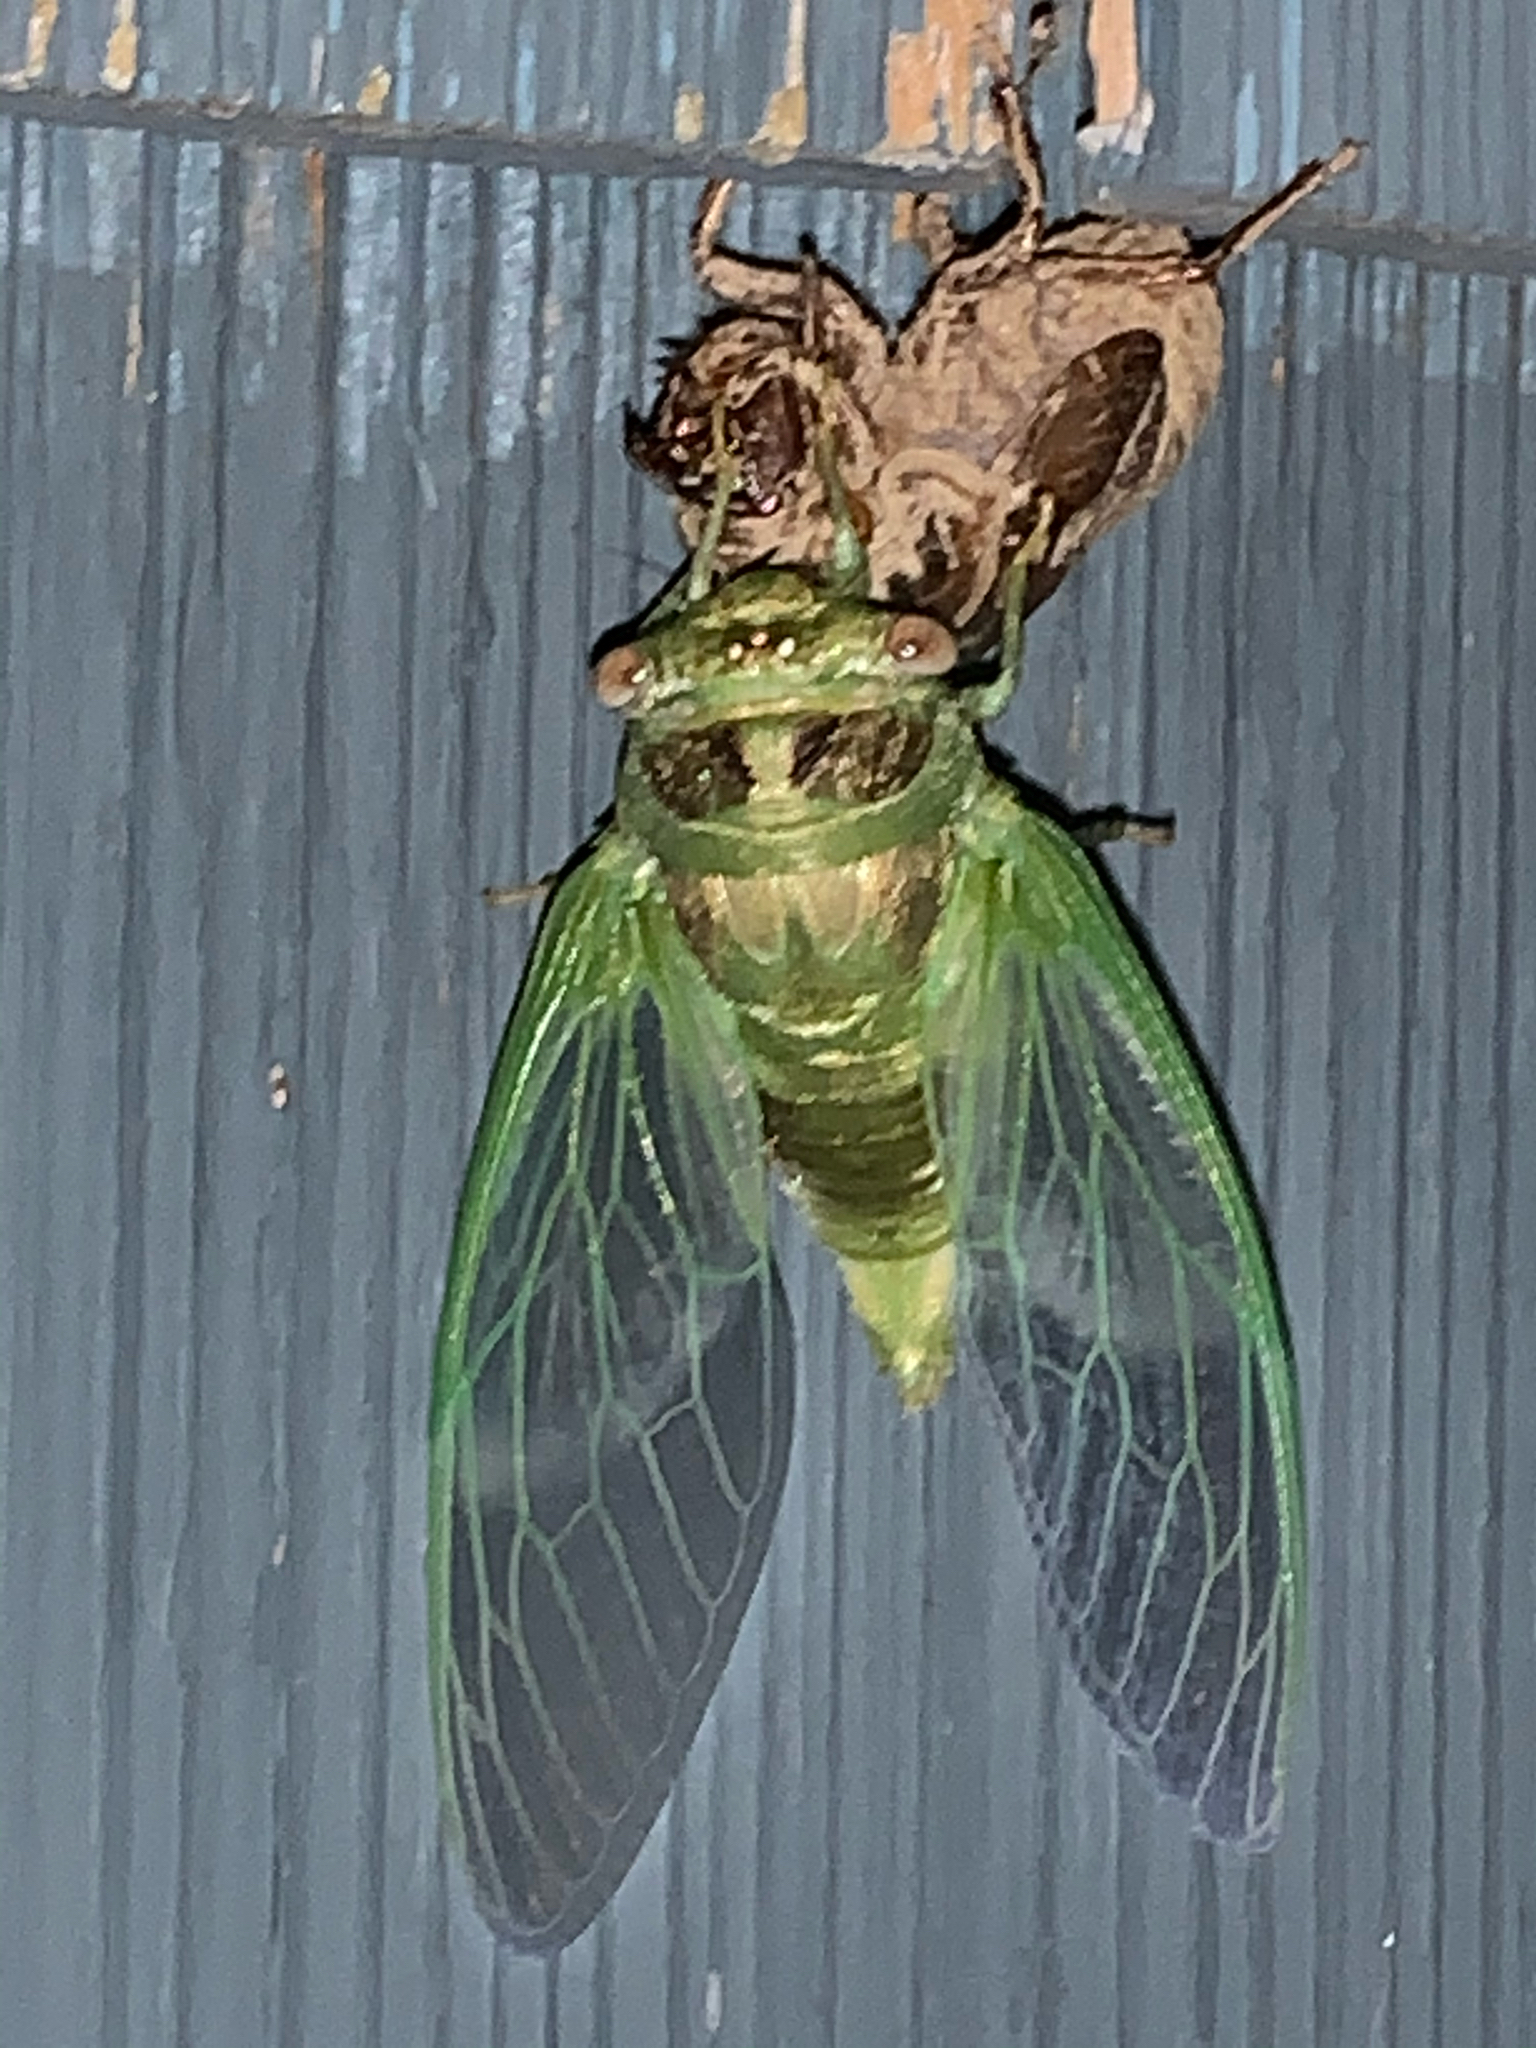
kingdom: Animalia
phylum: Arthropoda
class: Insecta
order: Hemiptera
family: Cicadidae
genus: Diceroprocta
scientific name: Diceroprocta grossa
